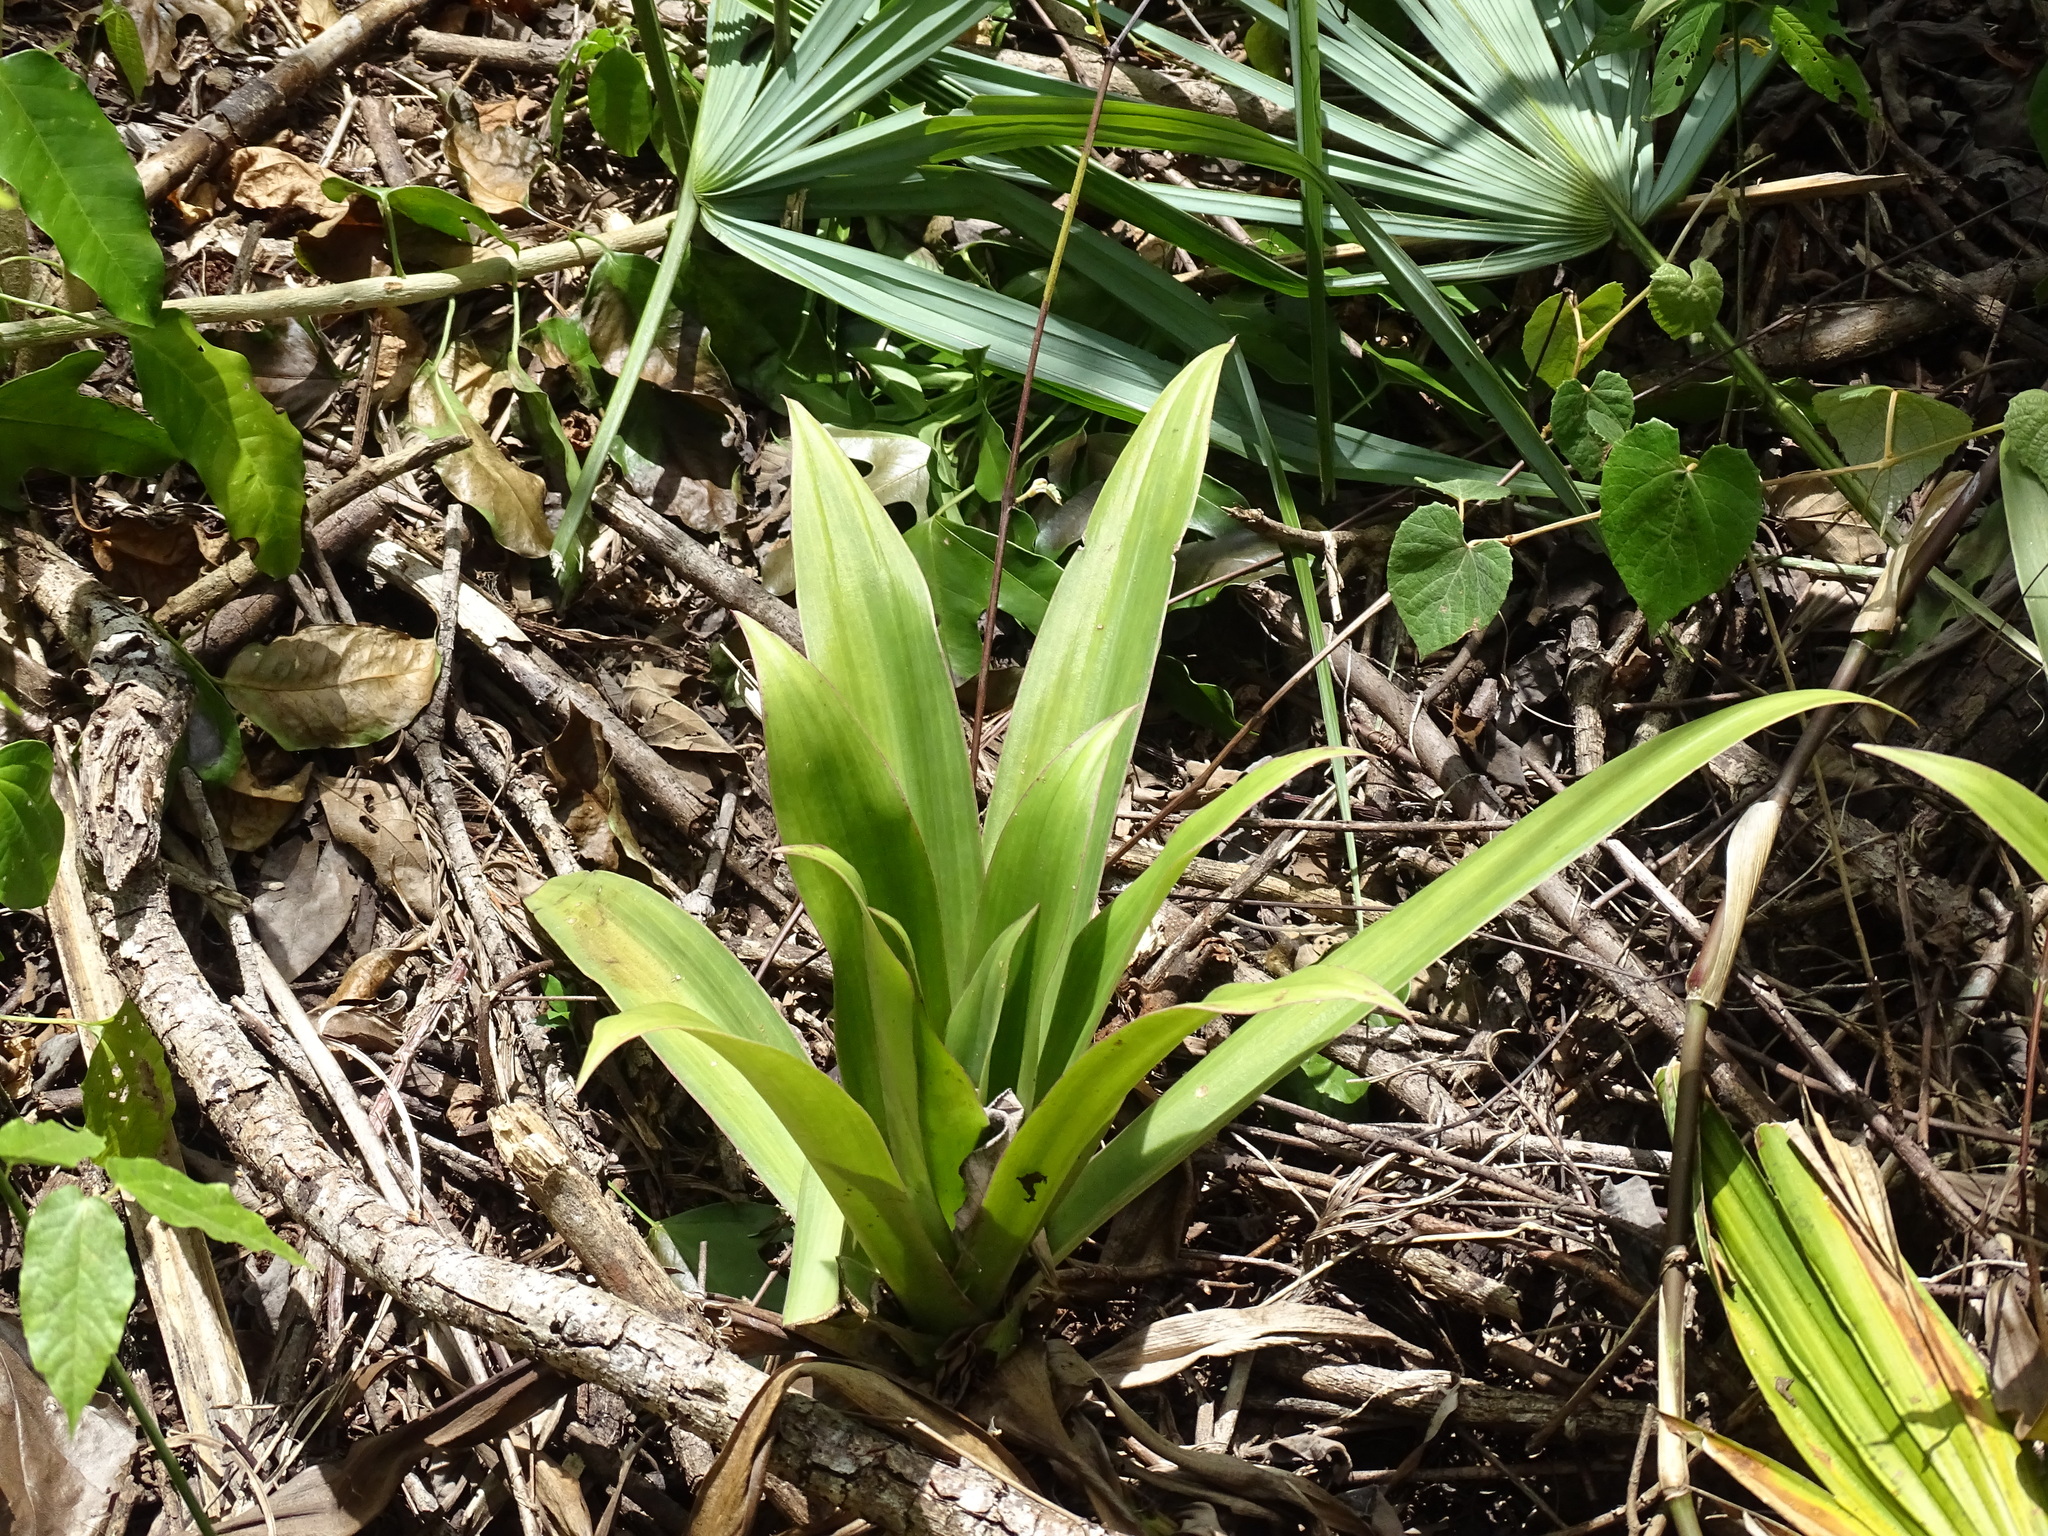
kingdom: Plantae
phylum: Tracheophyta
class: Liliopsida
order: Commelinales
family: Commelinaceae
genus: Tradescantia
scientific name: Tradescantia spathacea
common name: Boatlily
